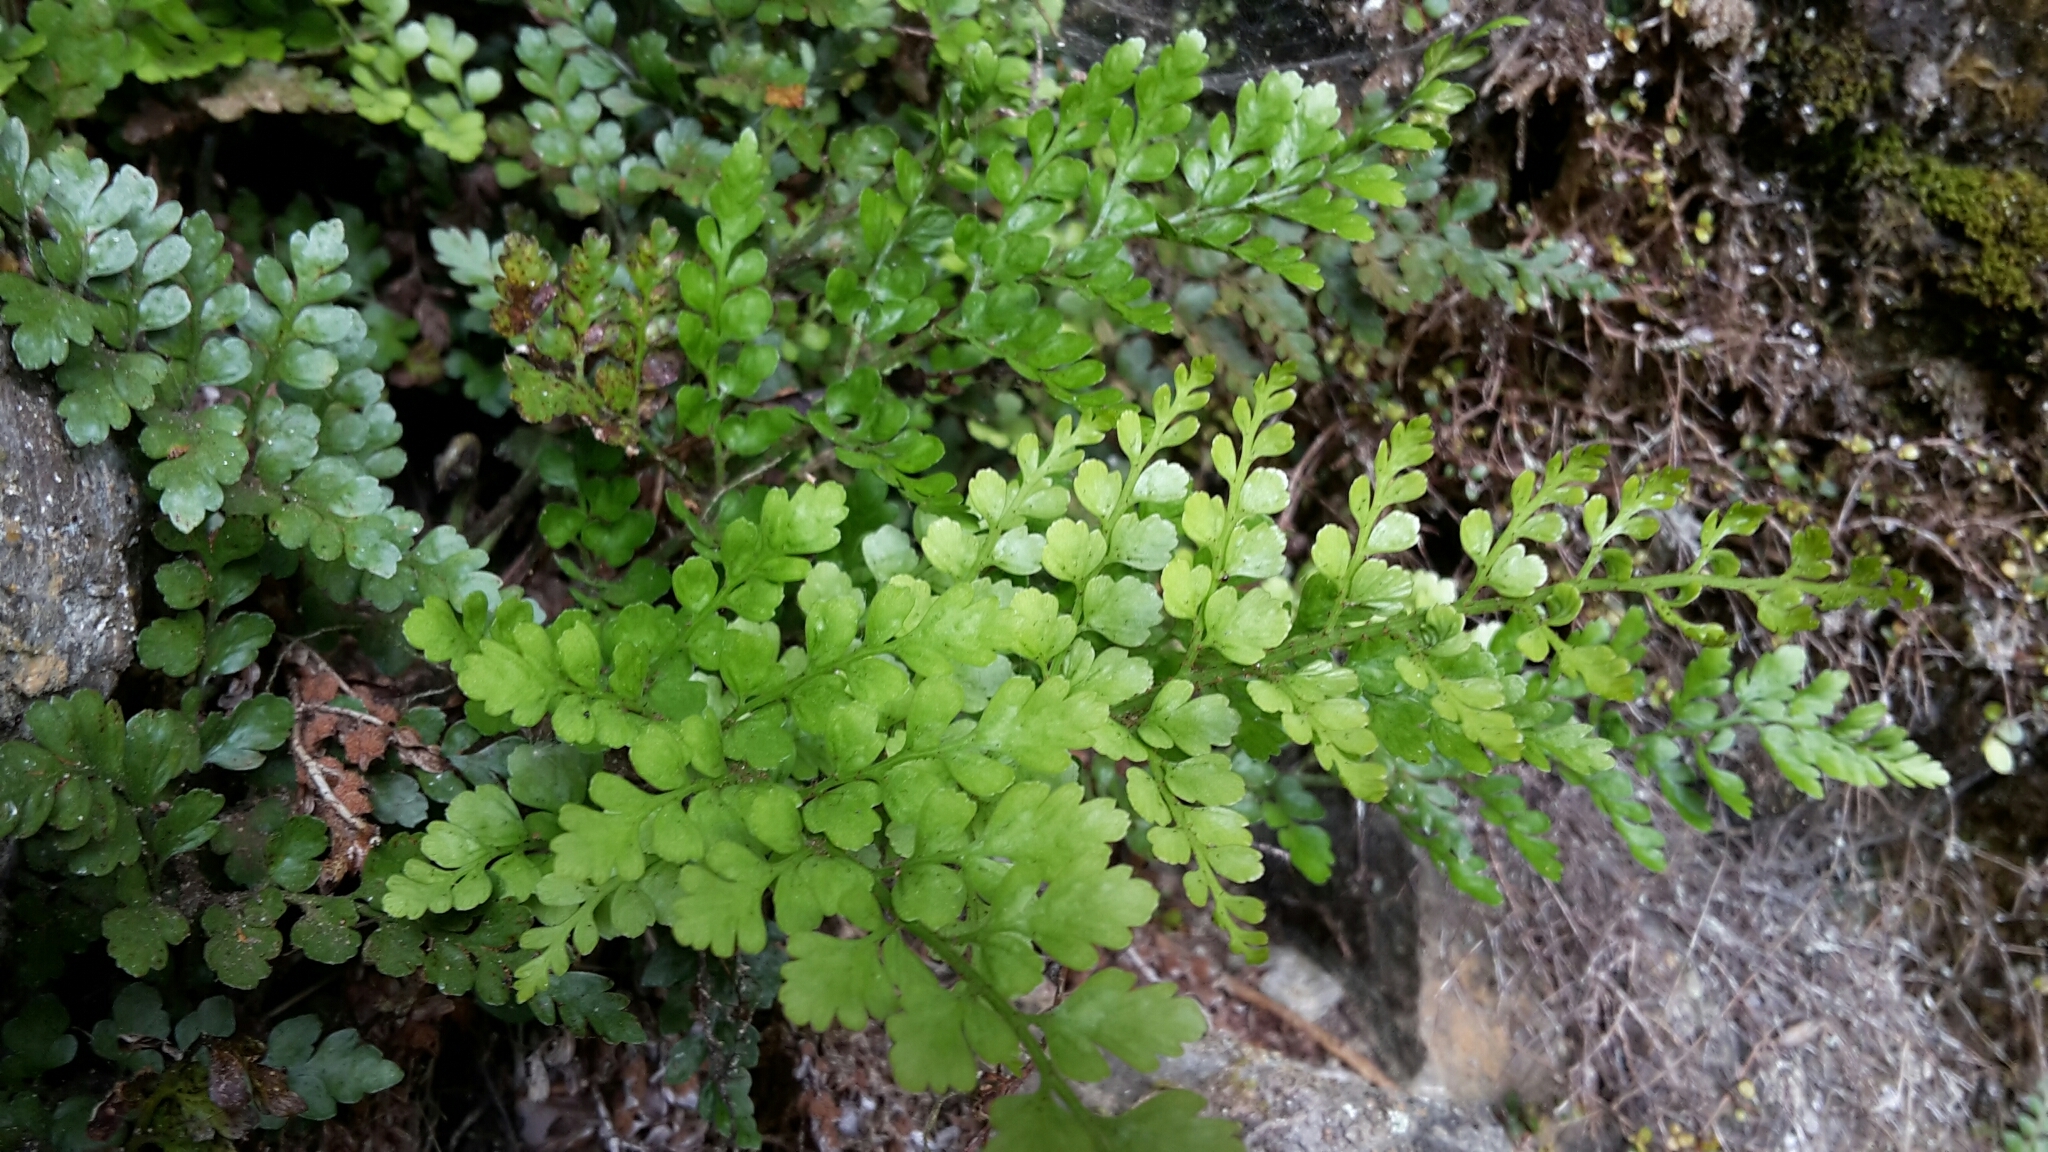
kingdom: Plantae
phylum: Tracheophyta
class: Polypodiopsida
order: Polypodiales
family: Aspleniaceae
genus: Asplenium
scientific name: Asplenium hookerianum
